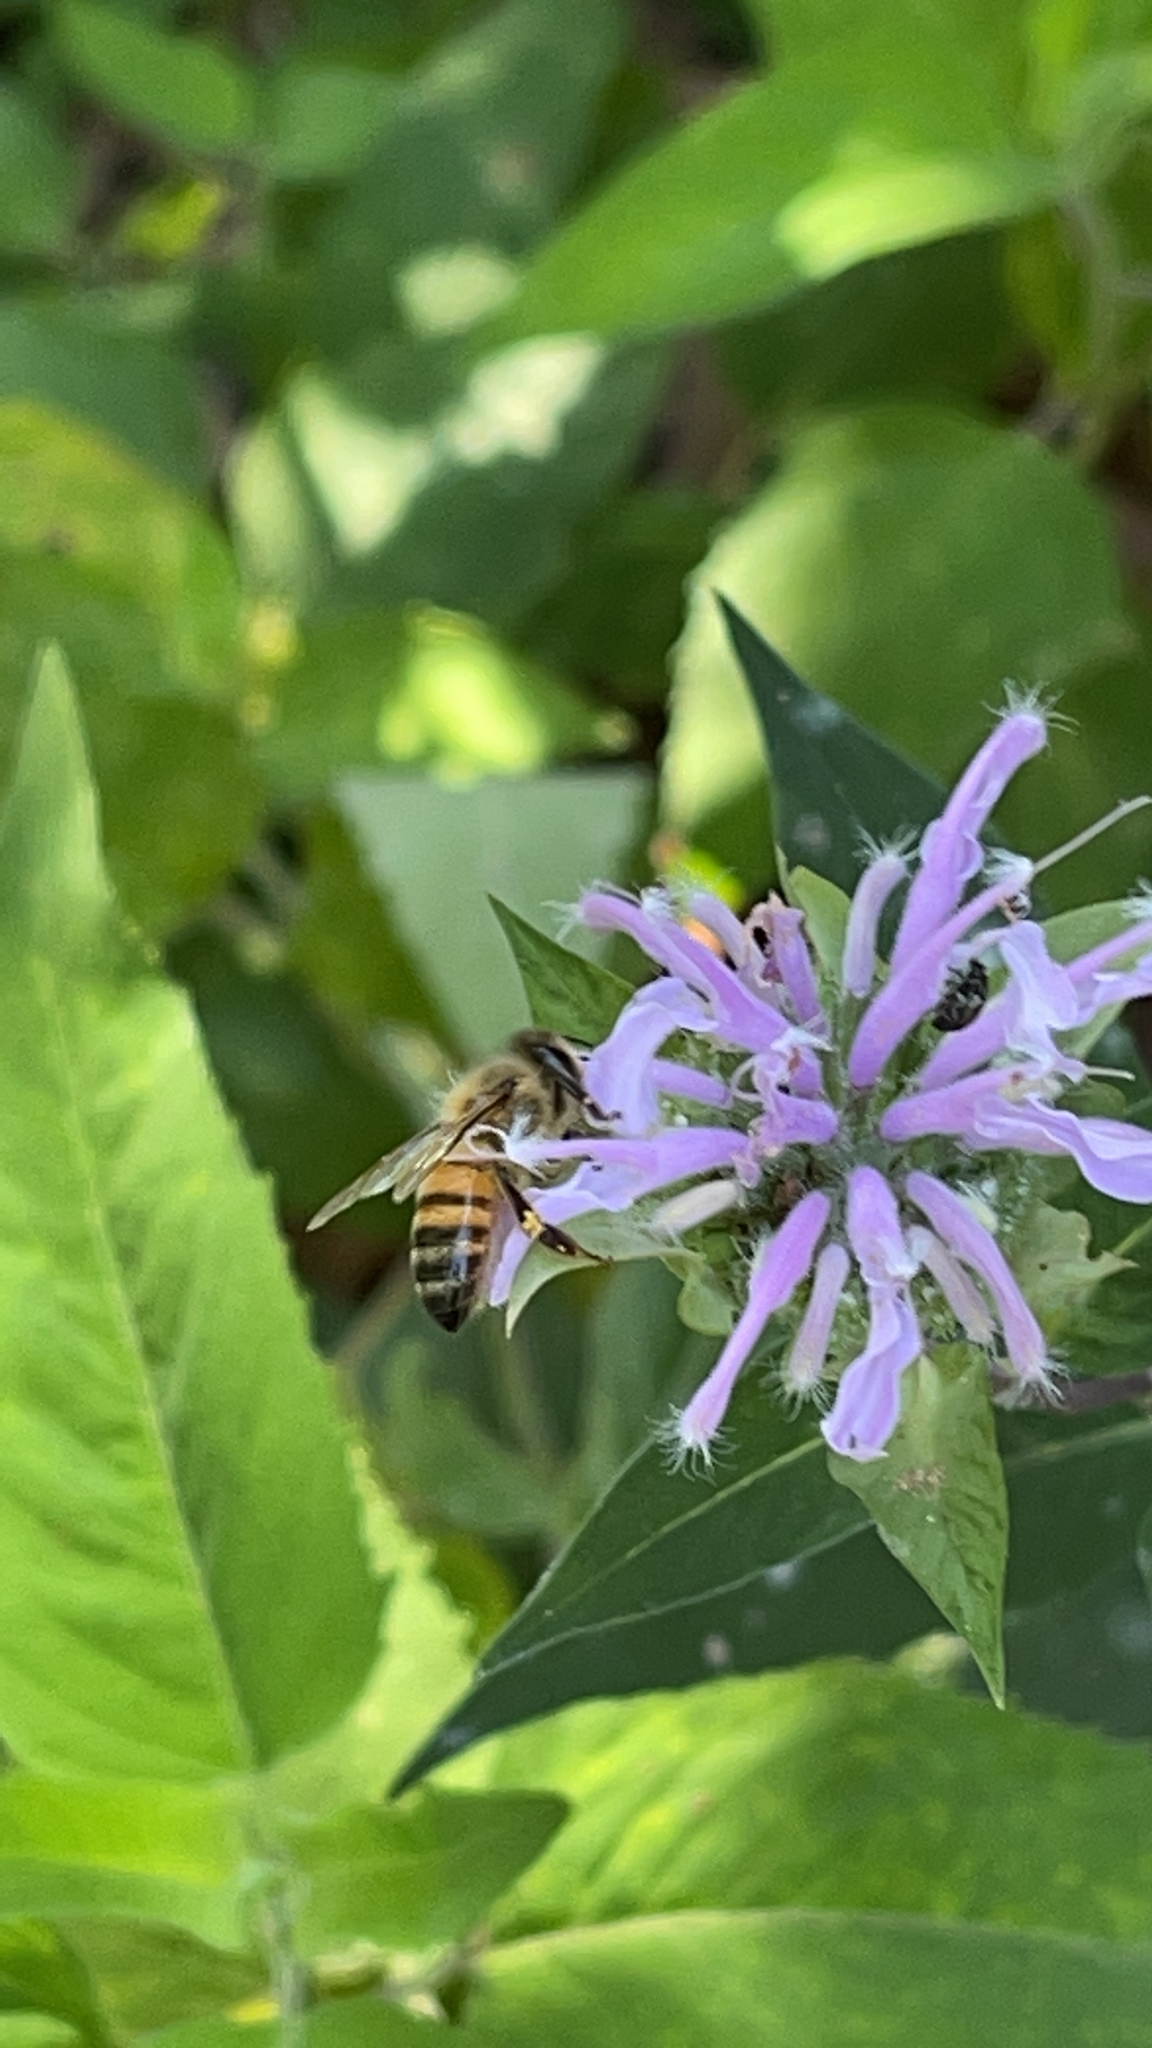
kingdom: Animalia
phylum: Arthropoda
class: Insecta
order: Hymenoptera
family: Apidae
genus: Apis
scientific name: Apis mellifera
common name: Honey bee
